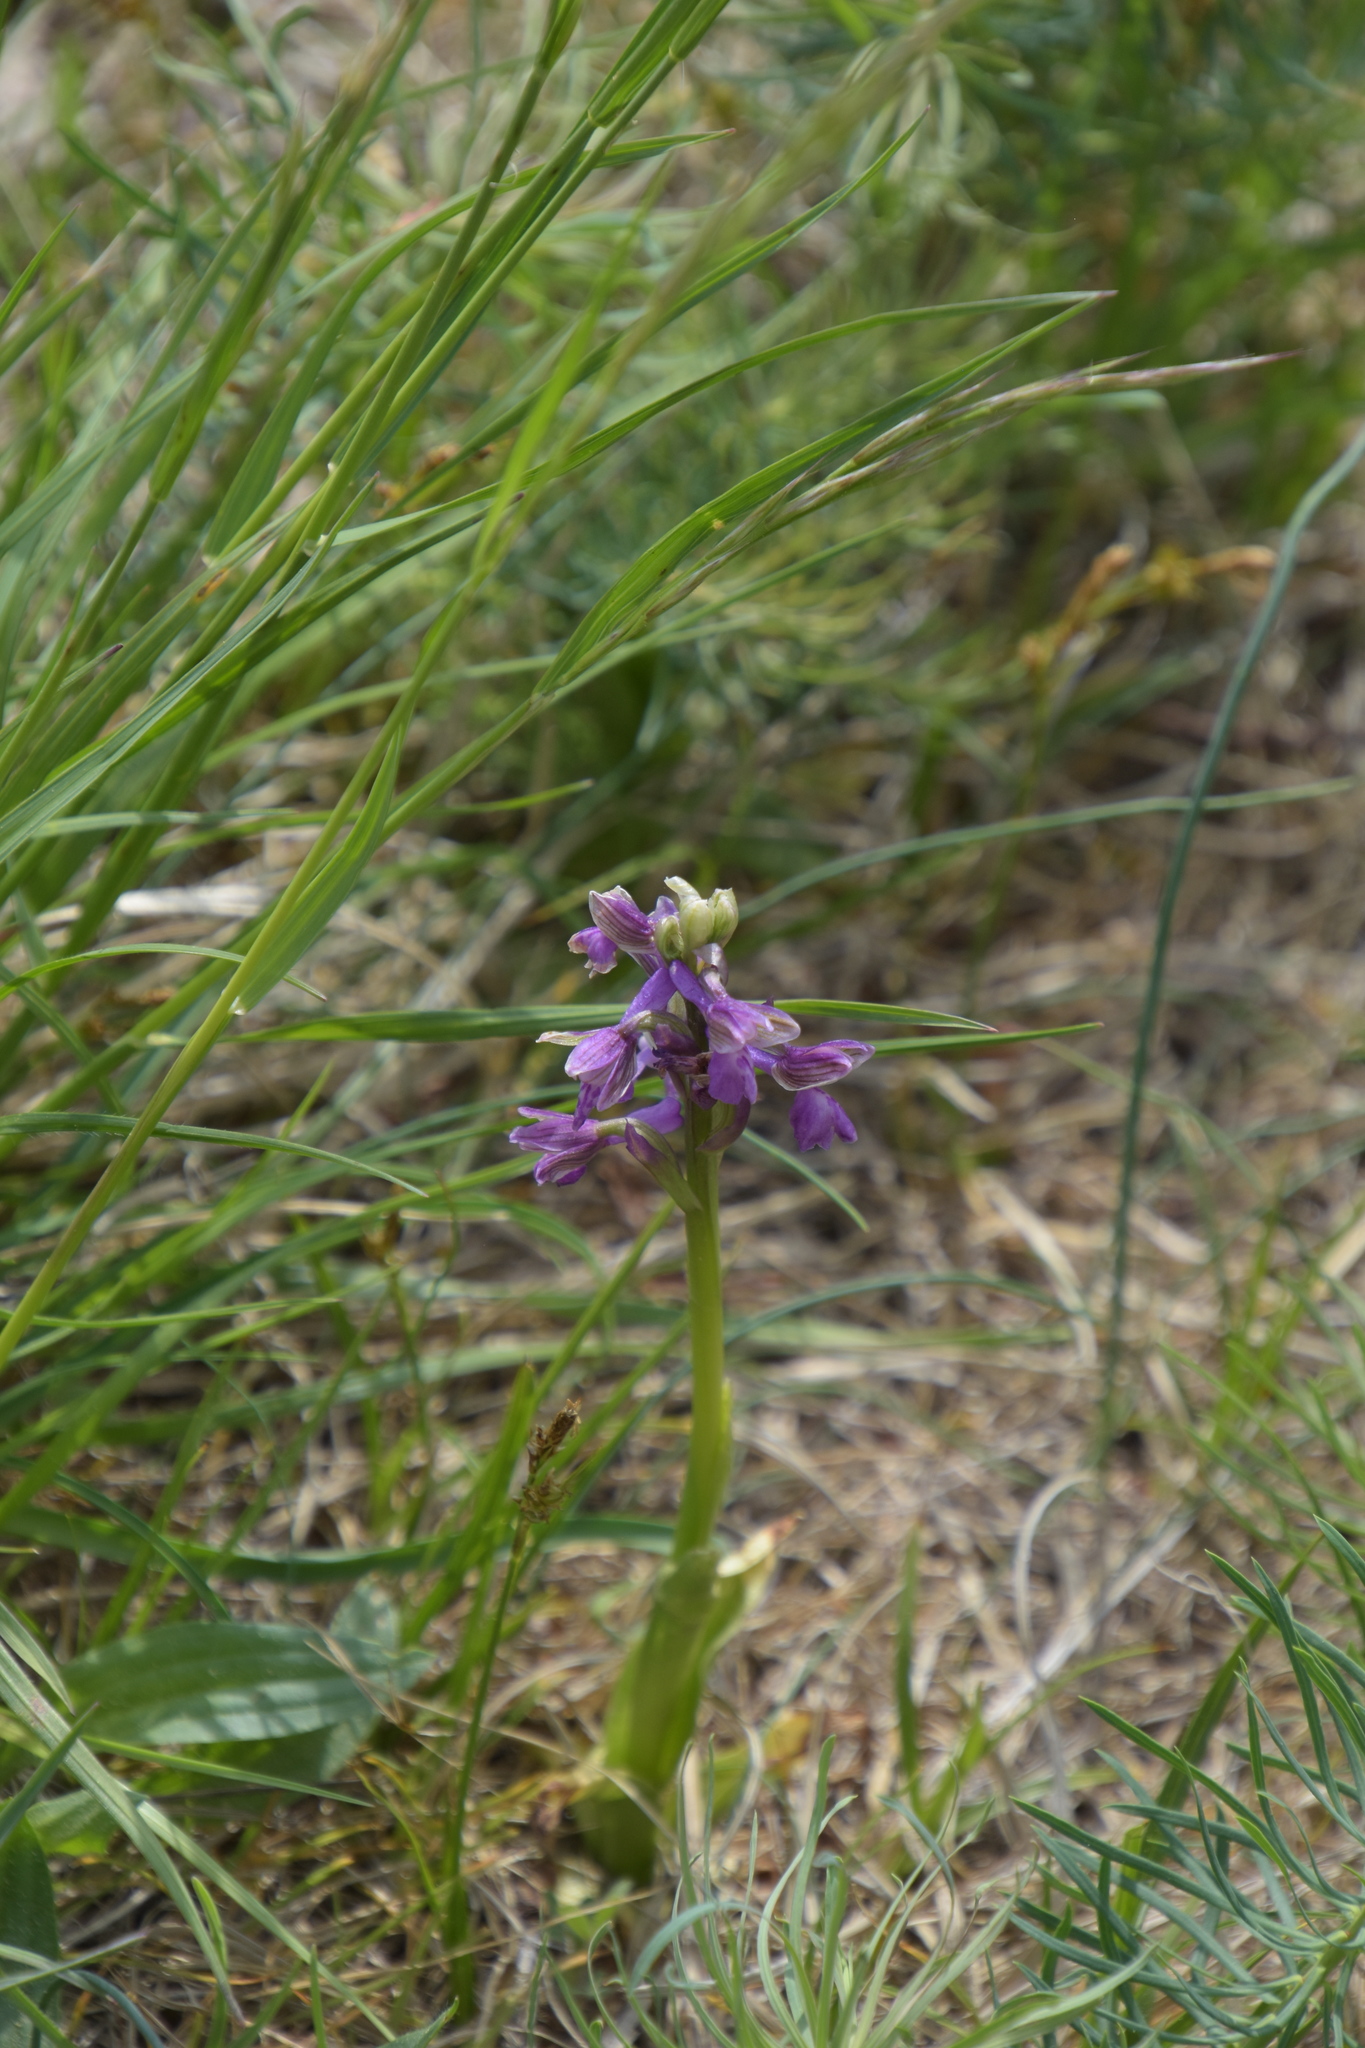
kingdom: Plantae
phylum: Tracheophyta
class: Liliopsida
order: Asparagales
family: Orchidaceae
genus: Anacamptis
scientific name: Anacamptis morio
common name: Green-winged orchid
